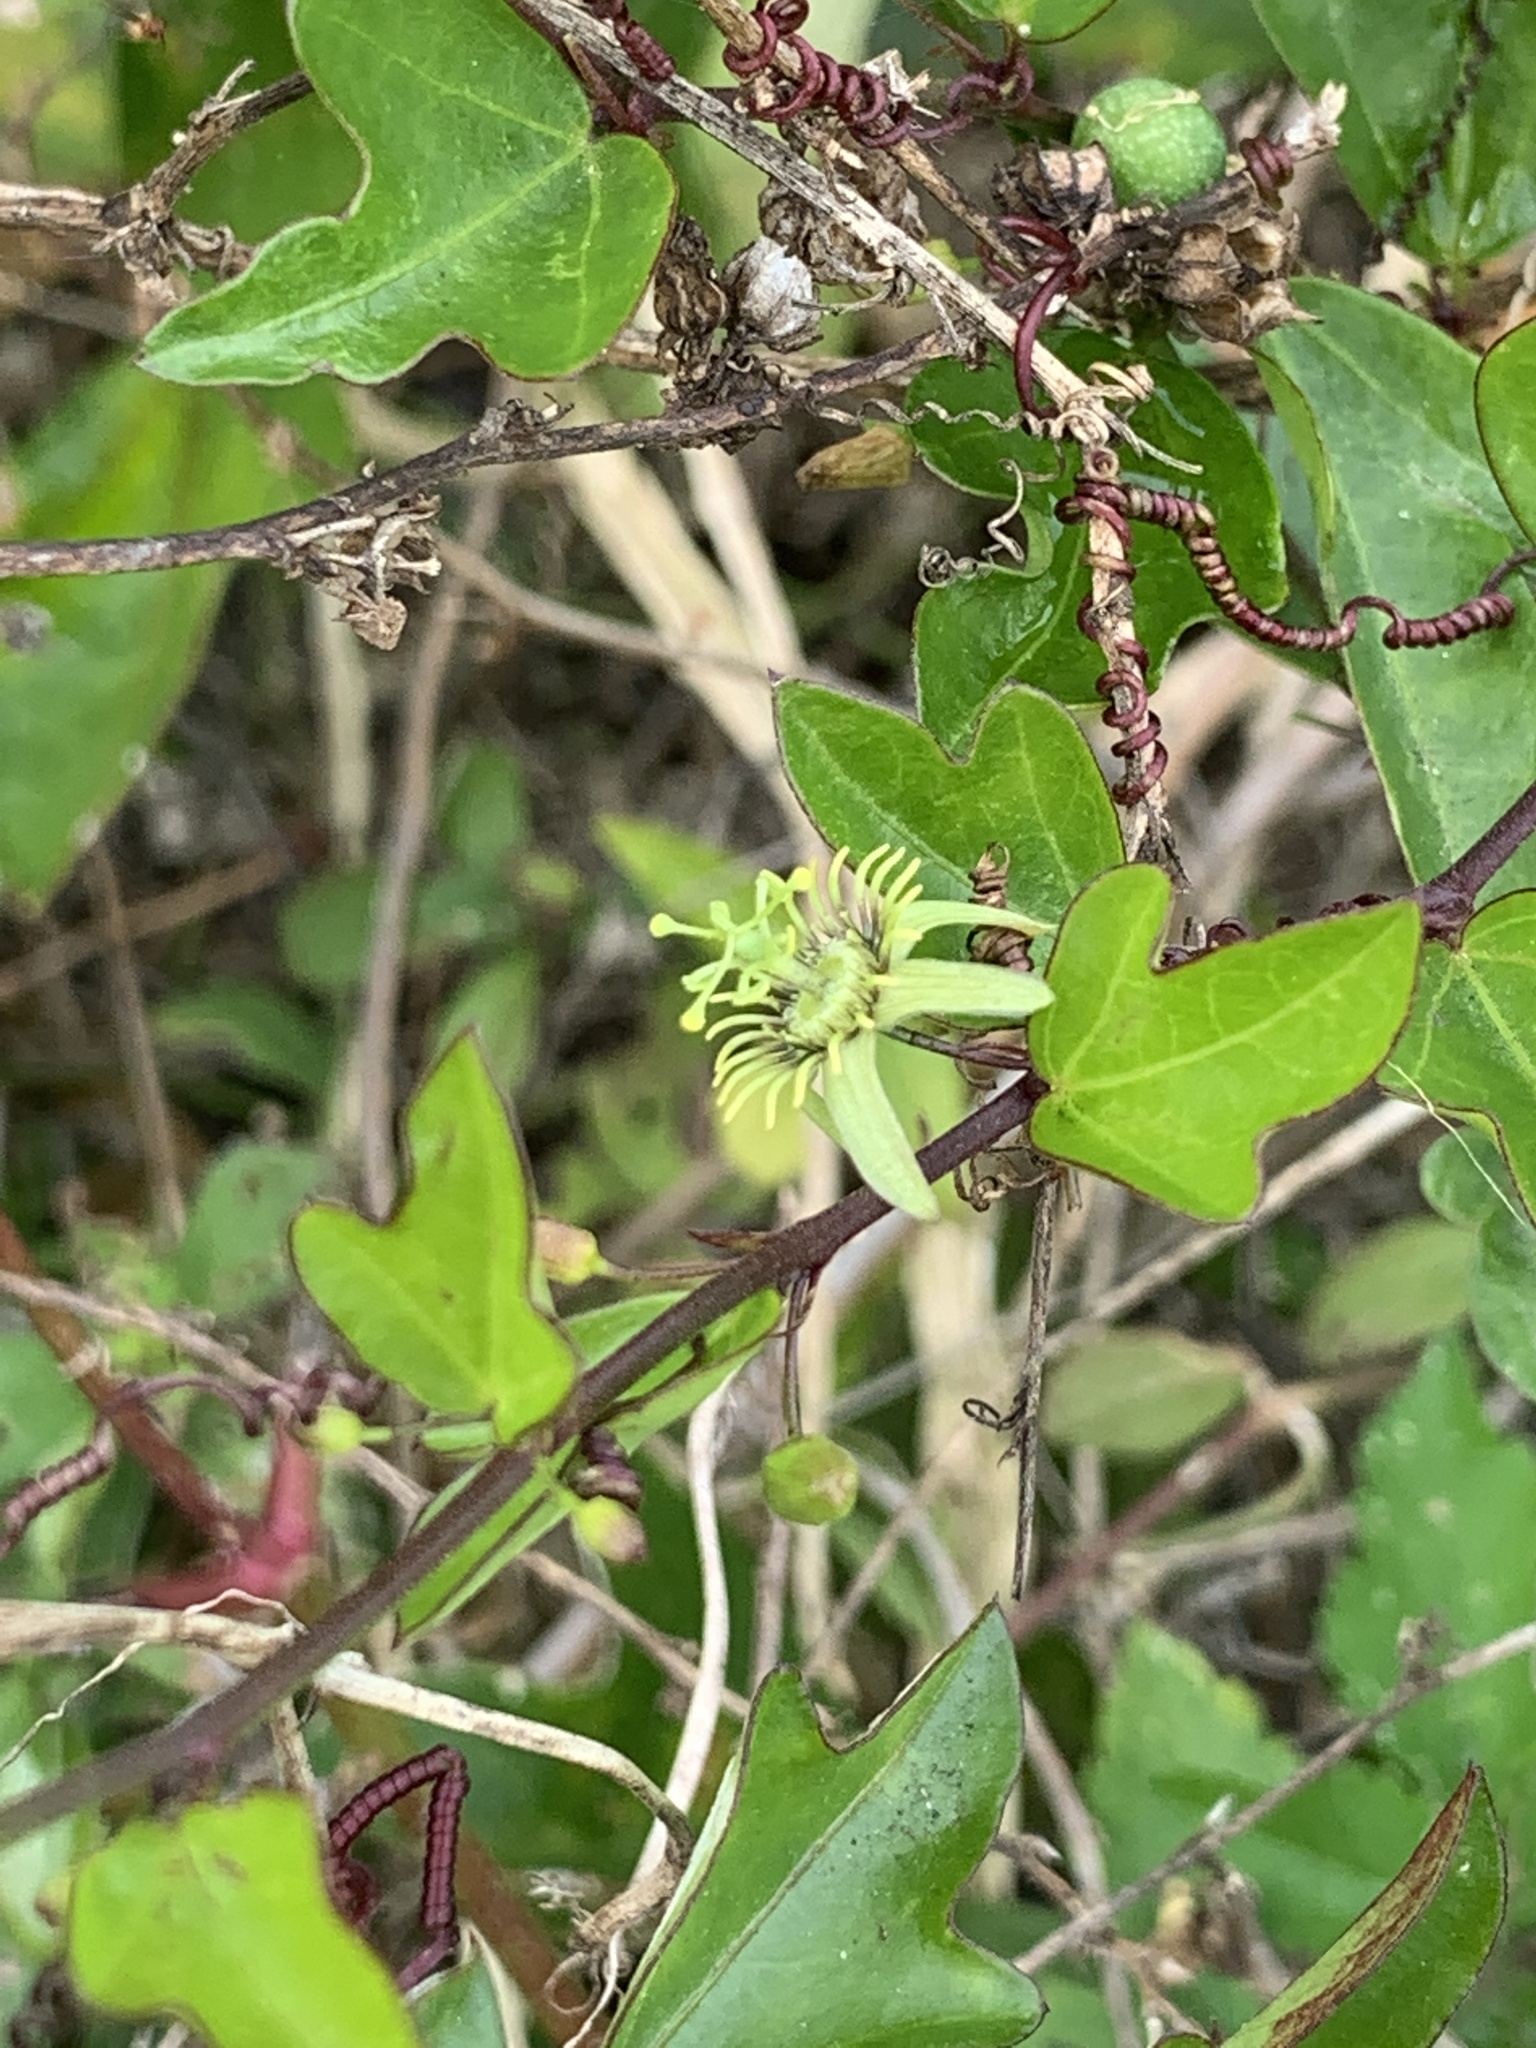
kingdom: Plantae
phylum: Tracheophyta
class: Magnoliopsida
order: Malpighiales
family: Passifloraceae
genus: Passiflora
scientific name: Passiflora pallida
